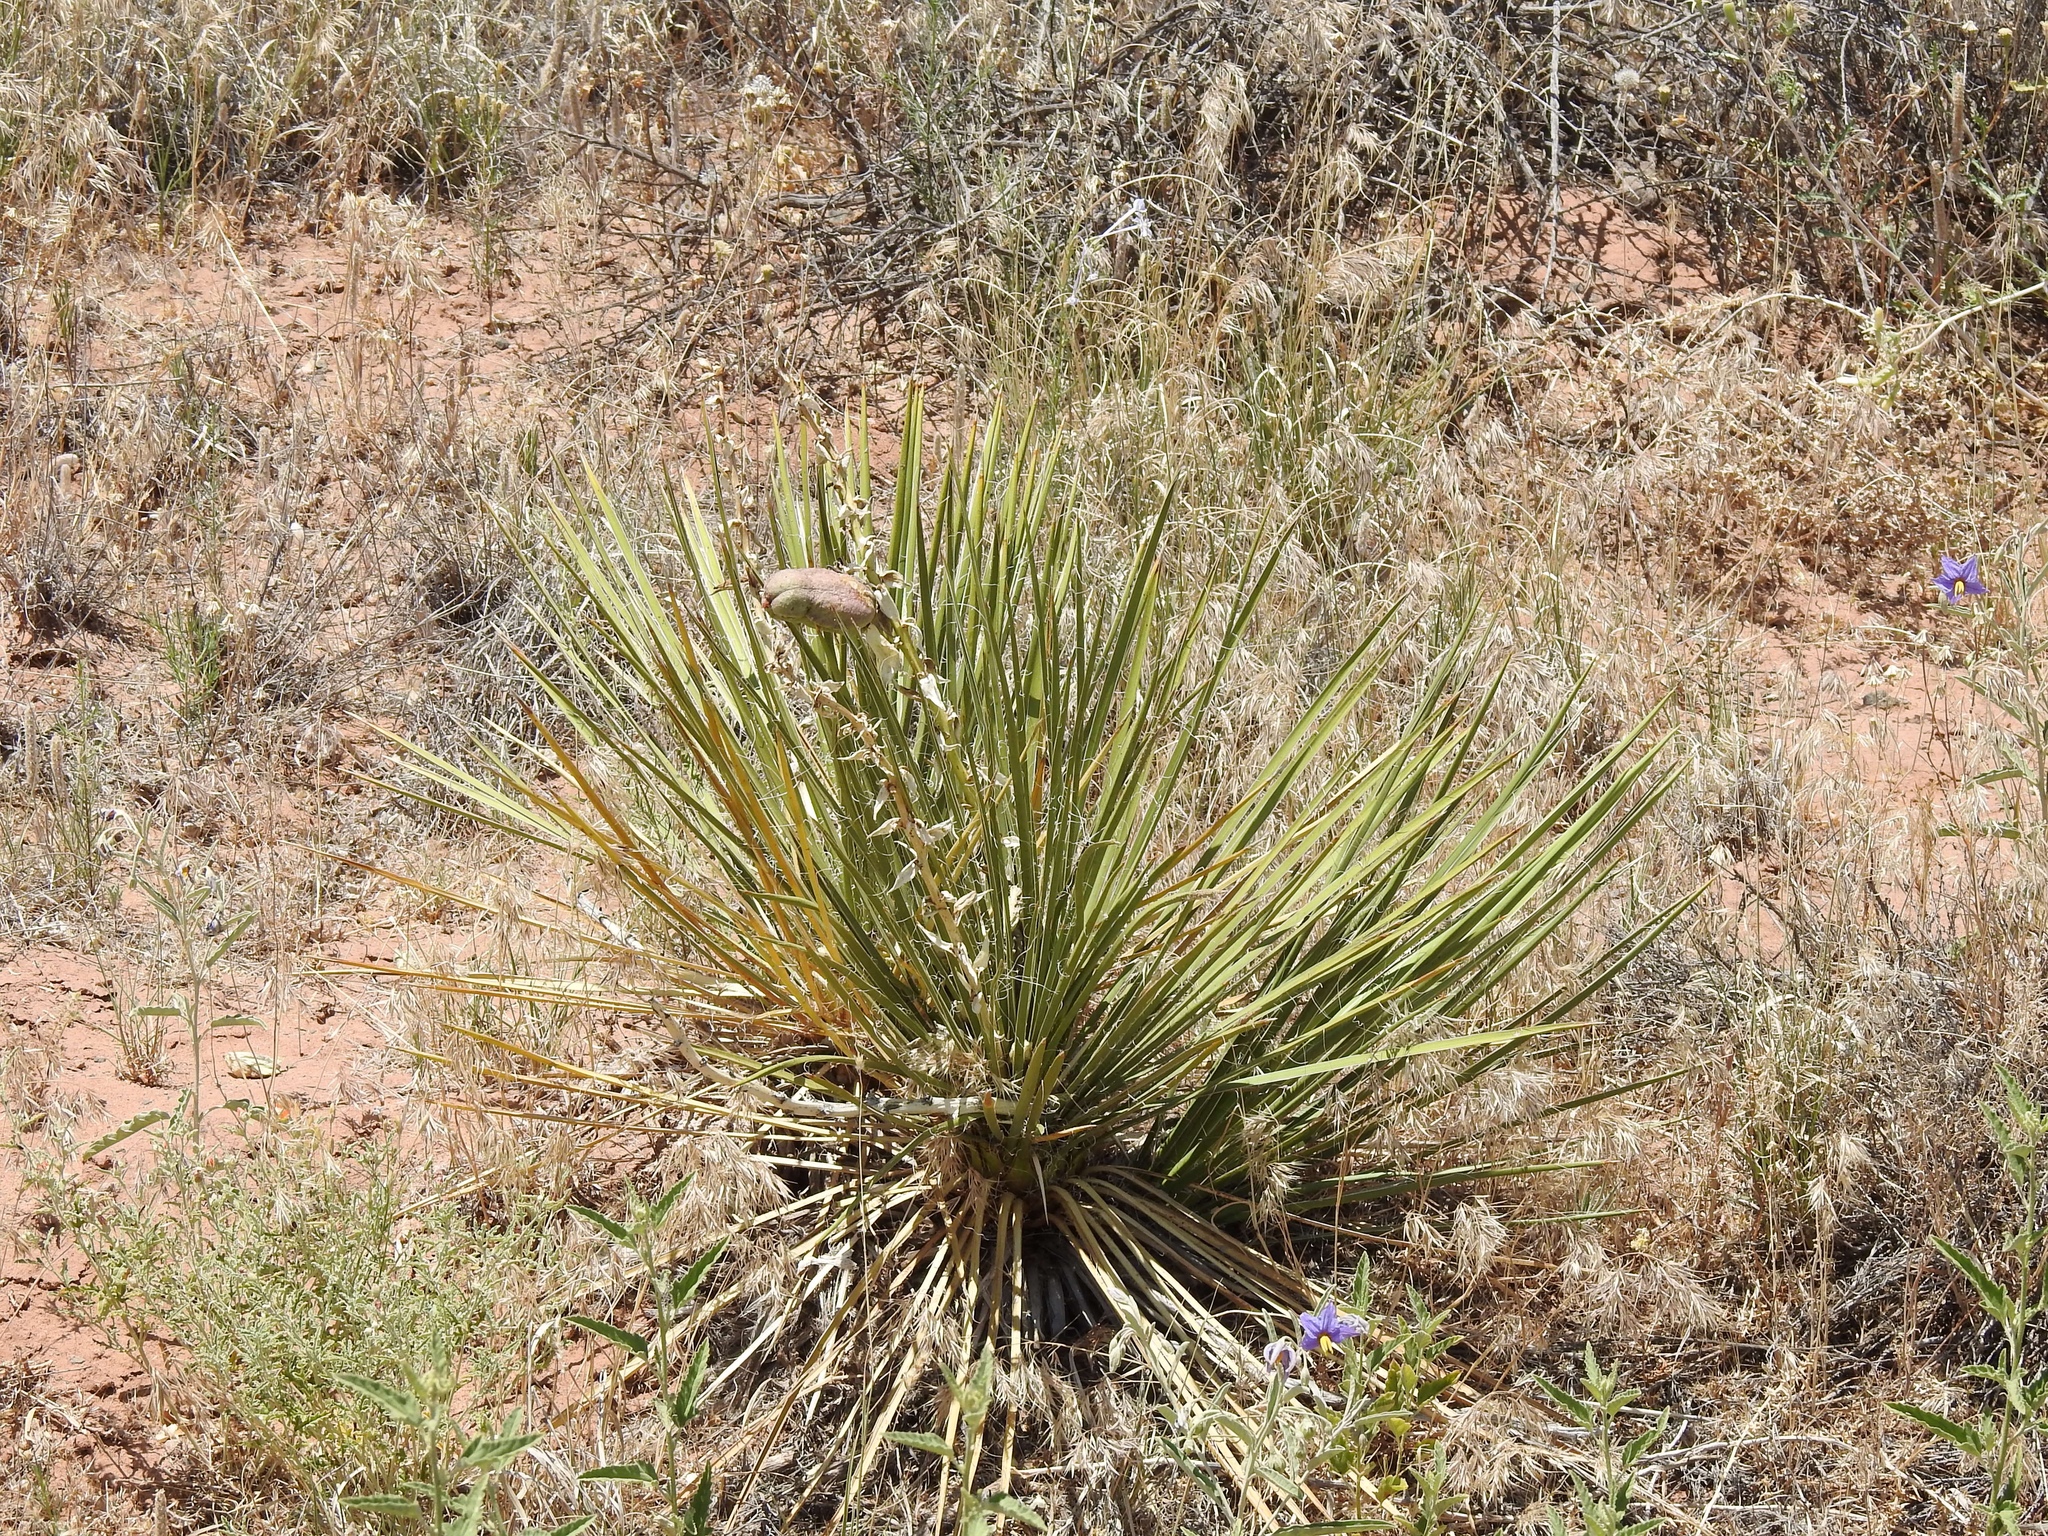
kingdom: Plantae
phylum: Tracheophyta
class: Liliopsida
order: Asparagales
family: Asparagaceae
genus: Yucca
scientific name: Yucca baileyi
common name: Alpine yucca
